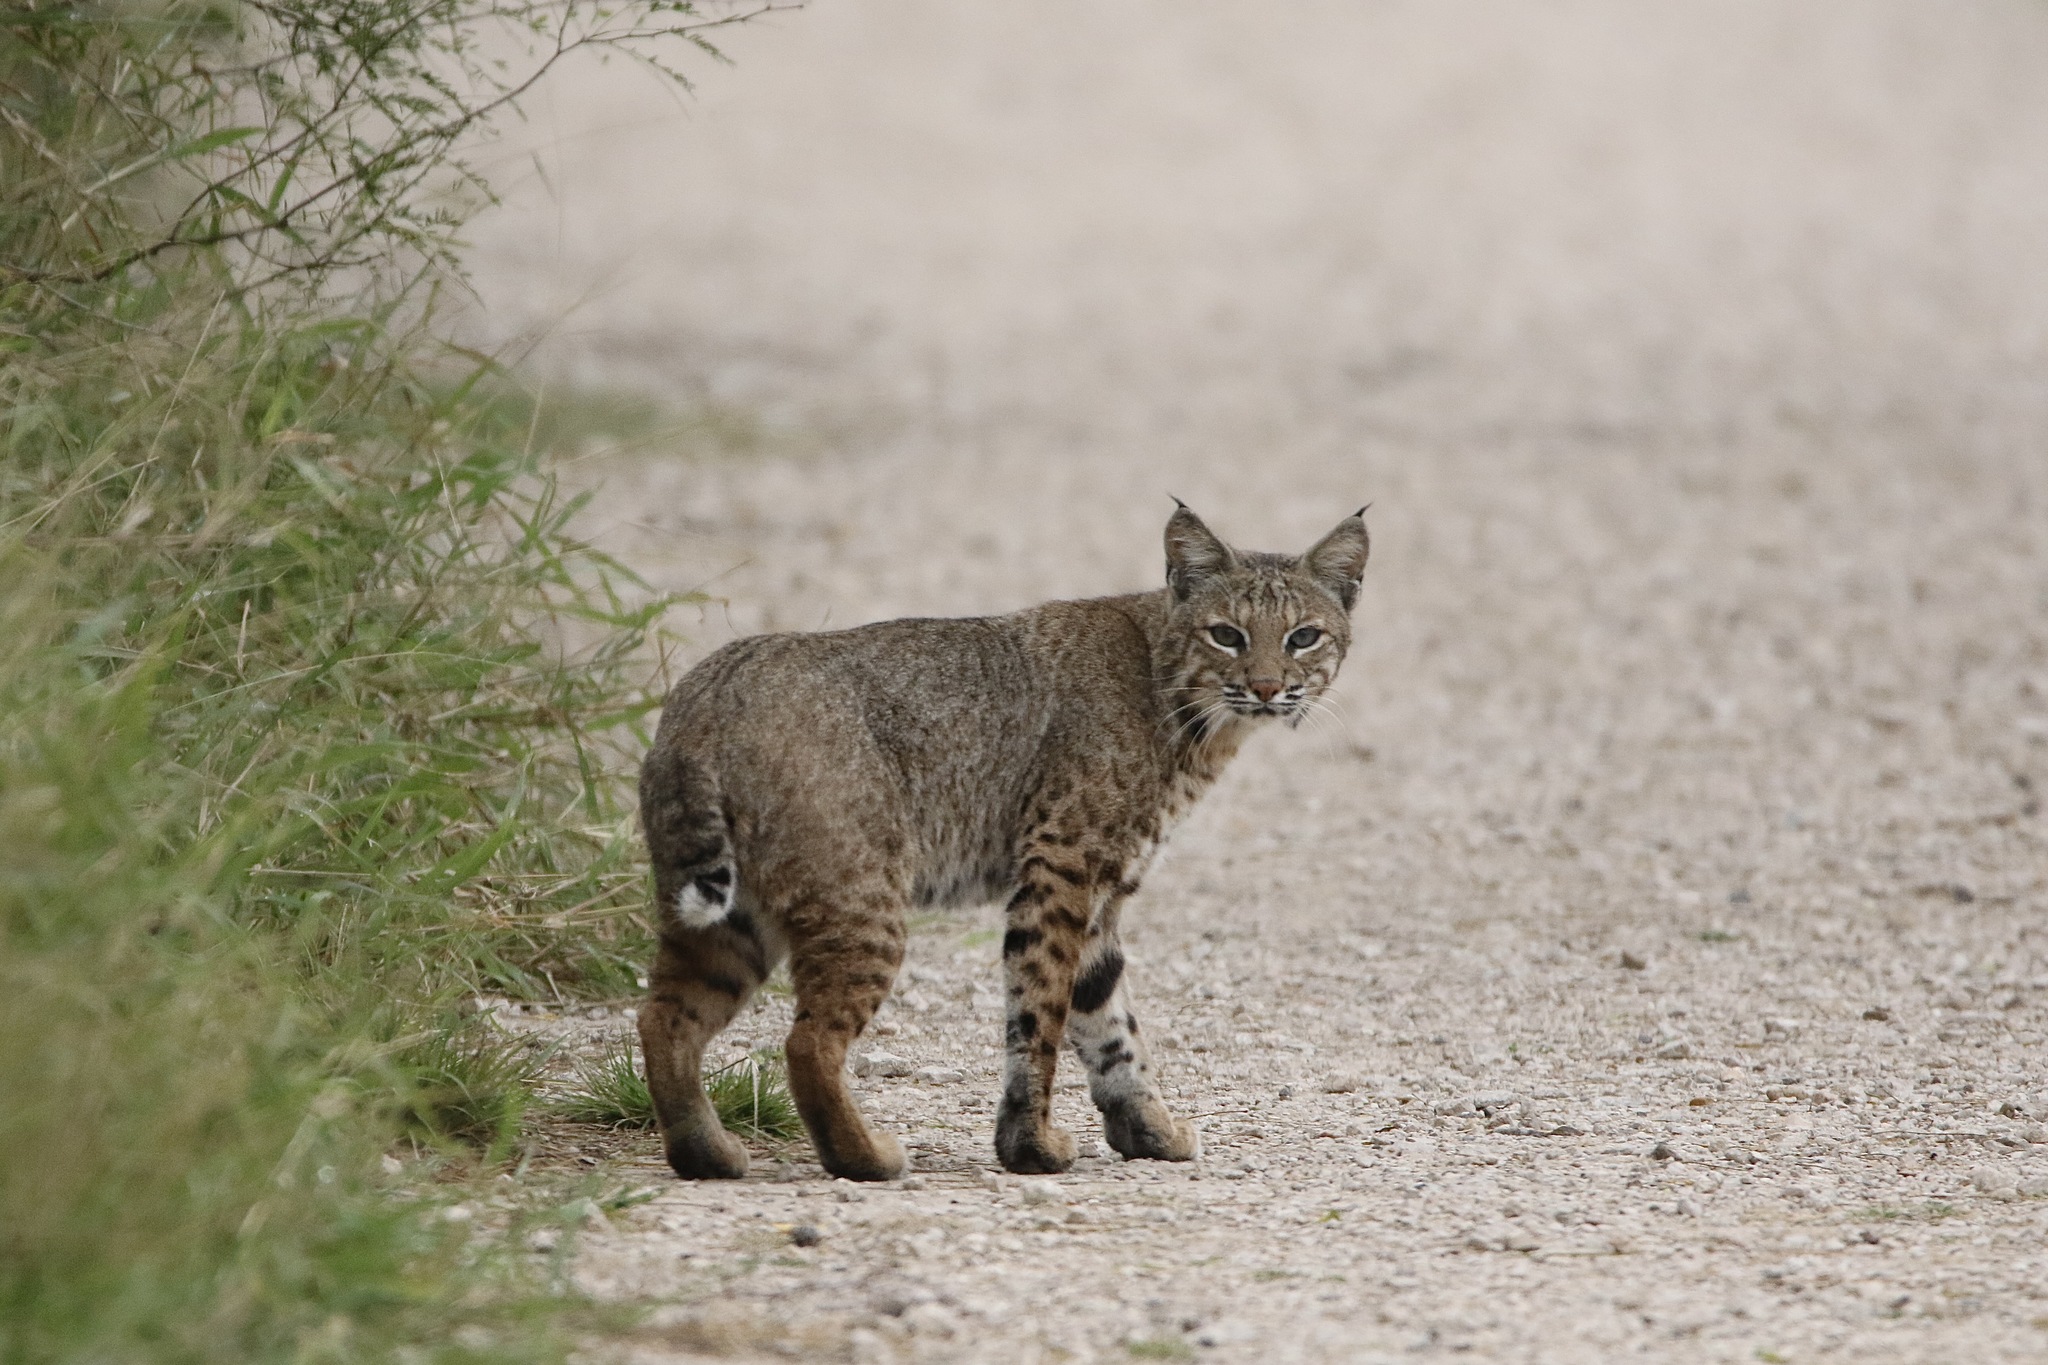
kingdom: Animalia
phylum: Chordata
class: Mammalia
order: Carnivora
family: Felidae
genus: Lynx
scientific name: Lynx rufus
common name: Bobcat
